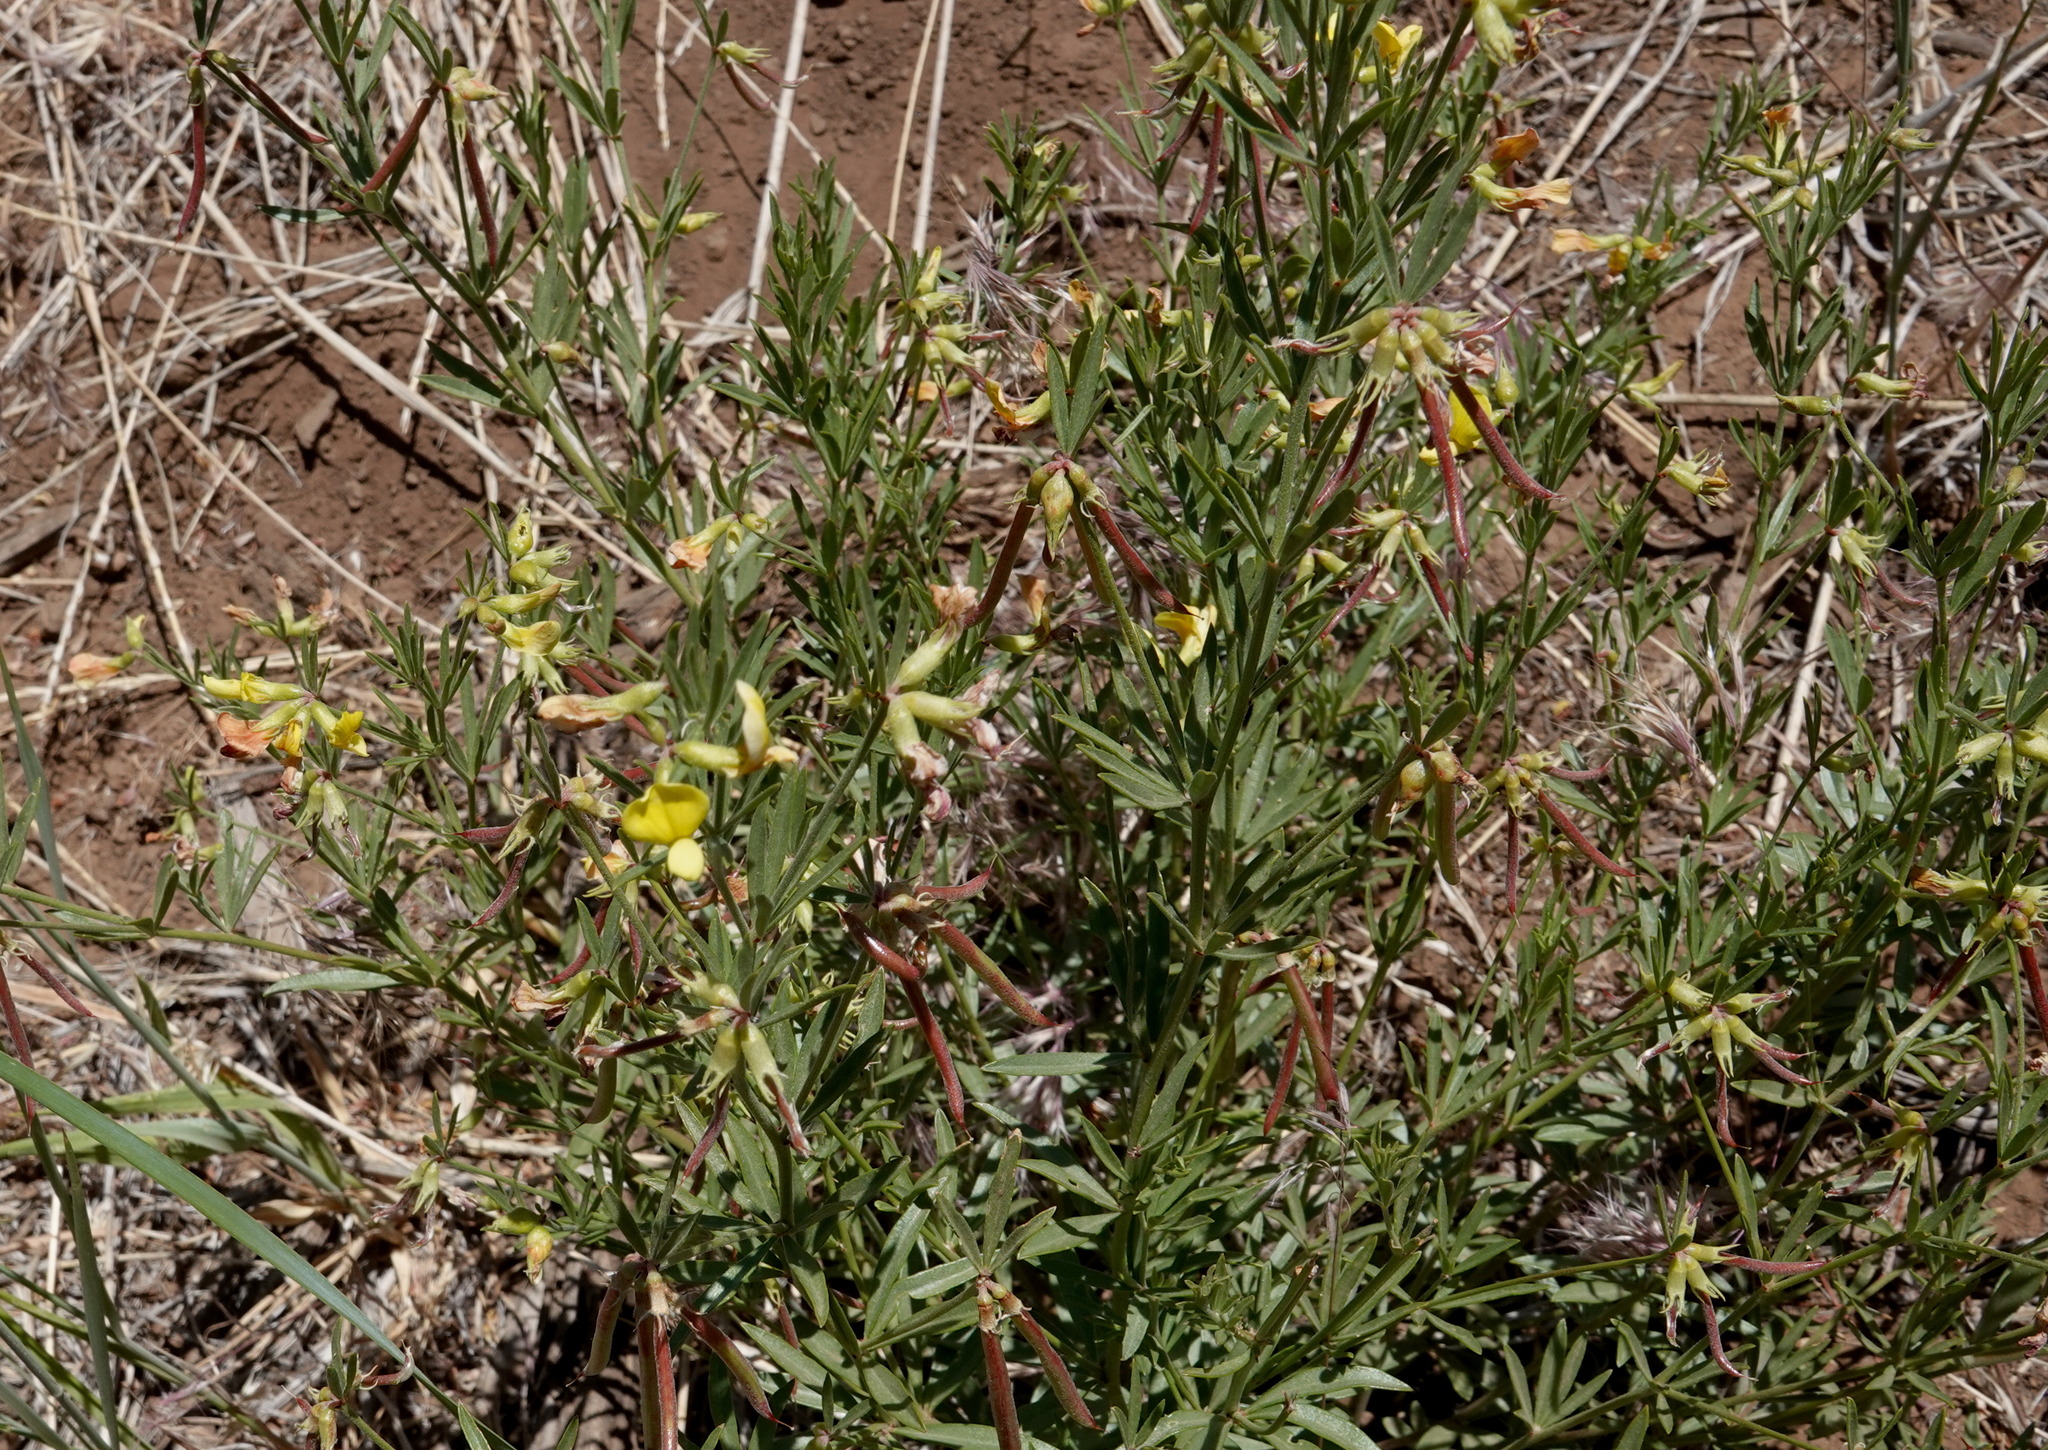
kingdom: Plantae
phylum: Tracheophyta
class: Magnoliopsida
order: Fabales
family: Fabaceae
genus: Acmispon
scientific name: Acmispon utahensis
